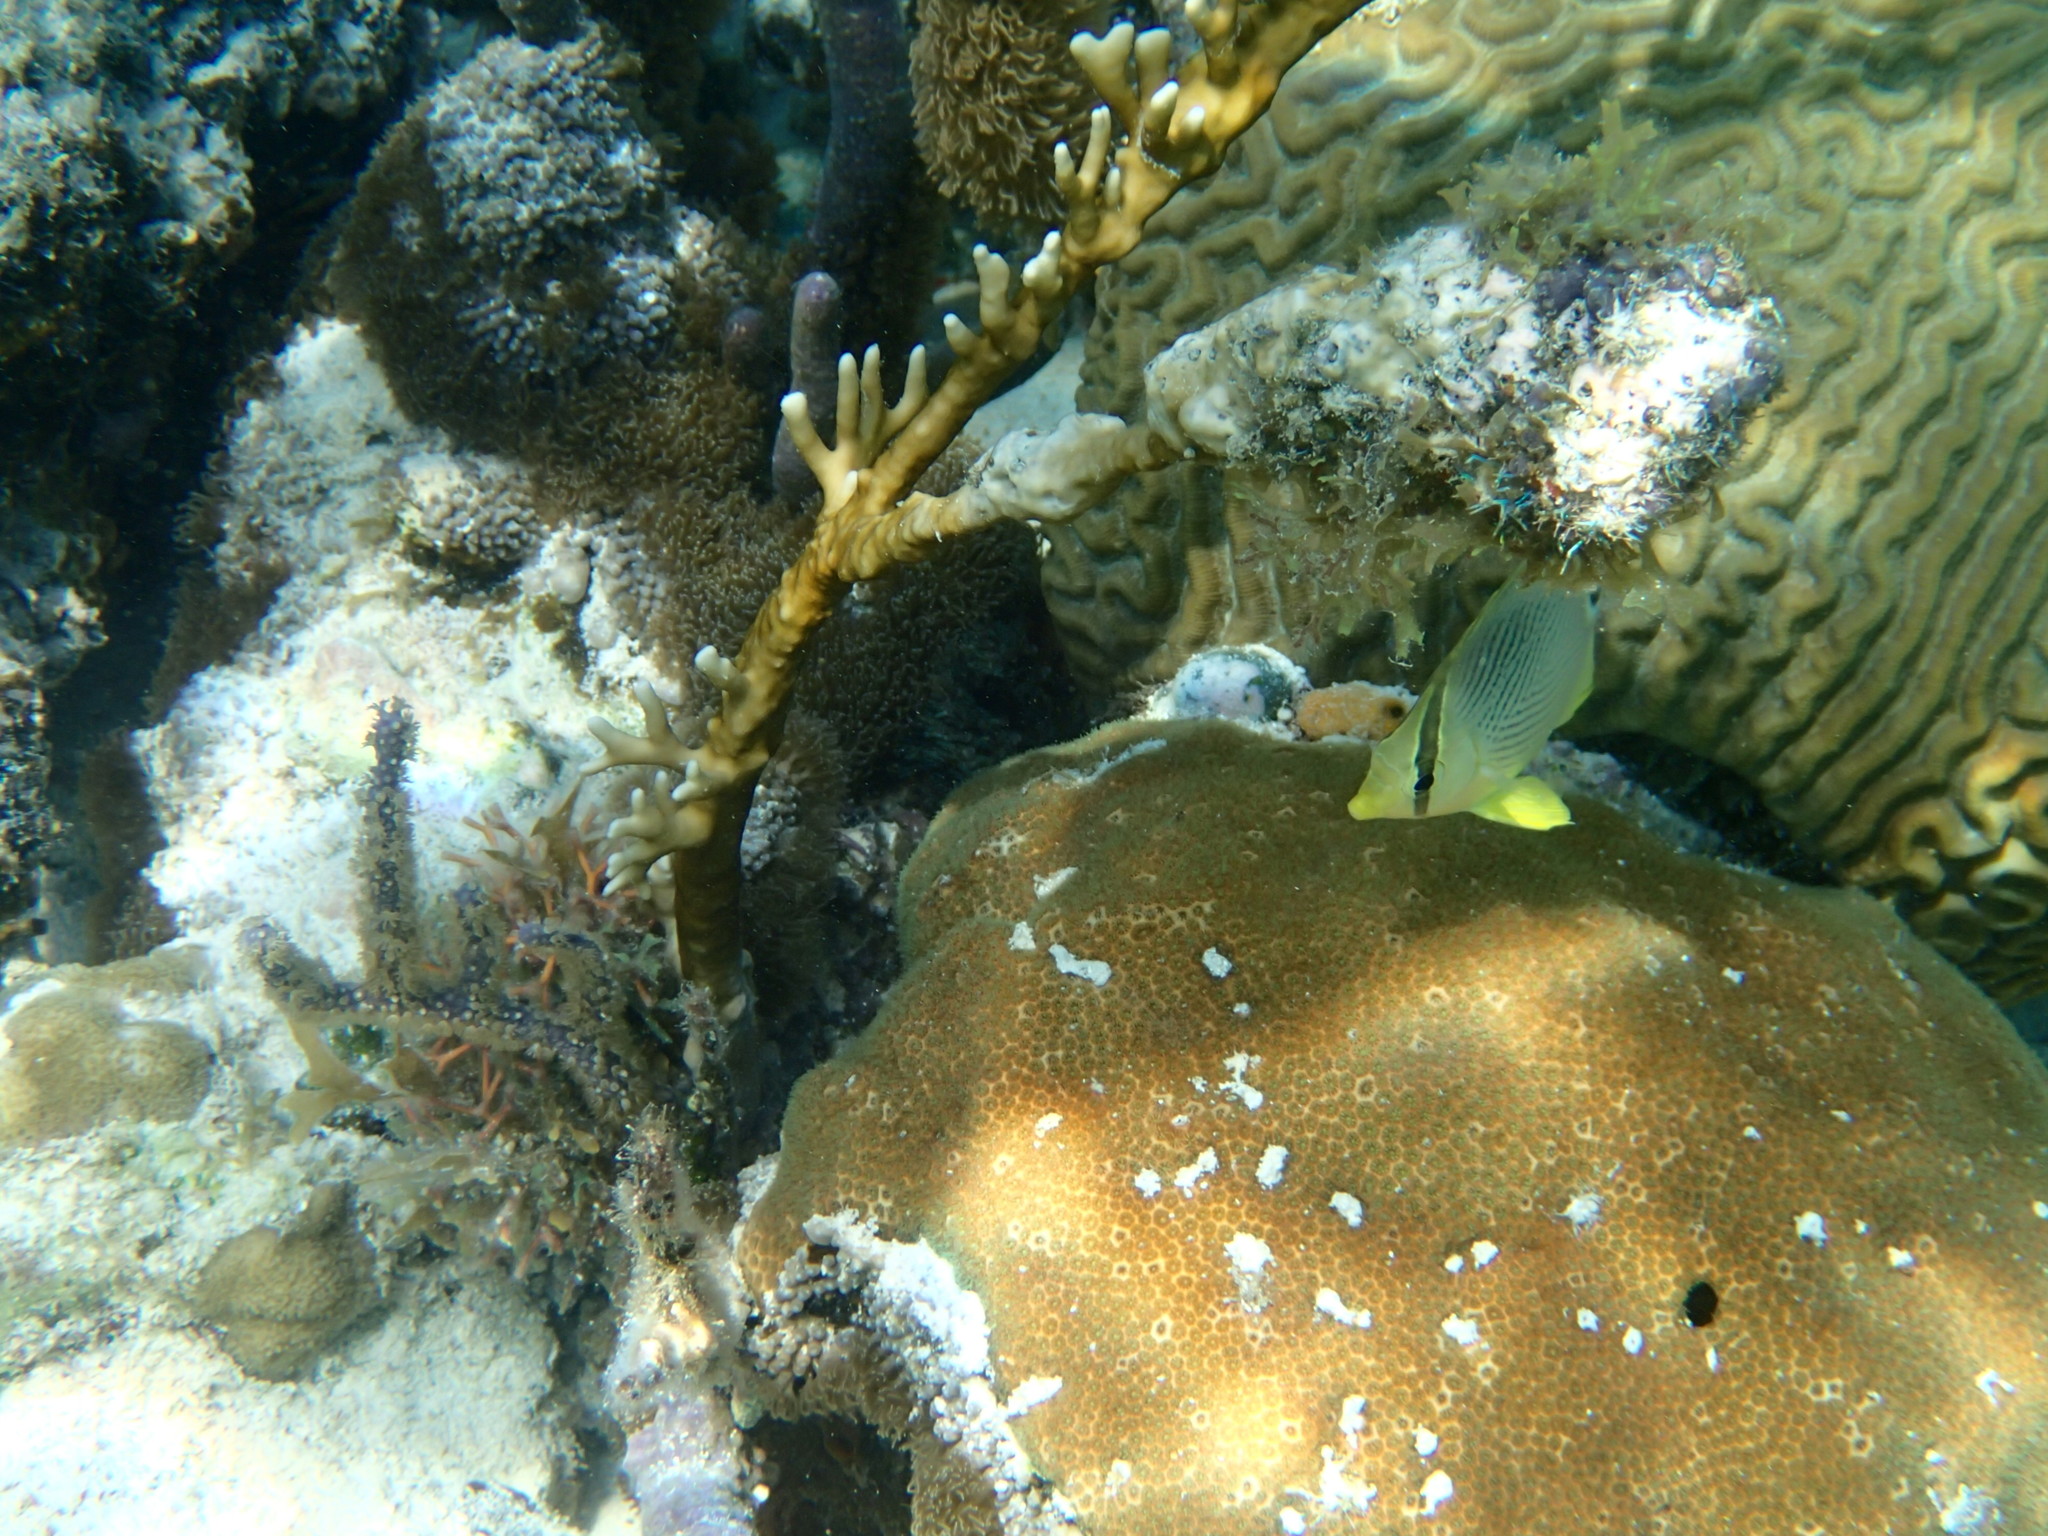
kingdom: Animalia
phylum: Chordata
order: Perciformes
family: Chaetodontidae
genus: Chaetodon
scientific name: Chaetodon capistratus
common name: Kete
